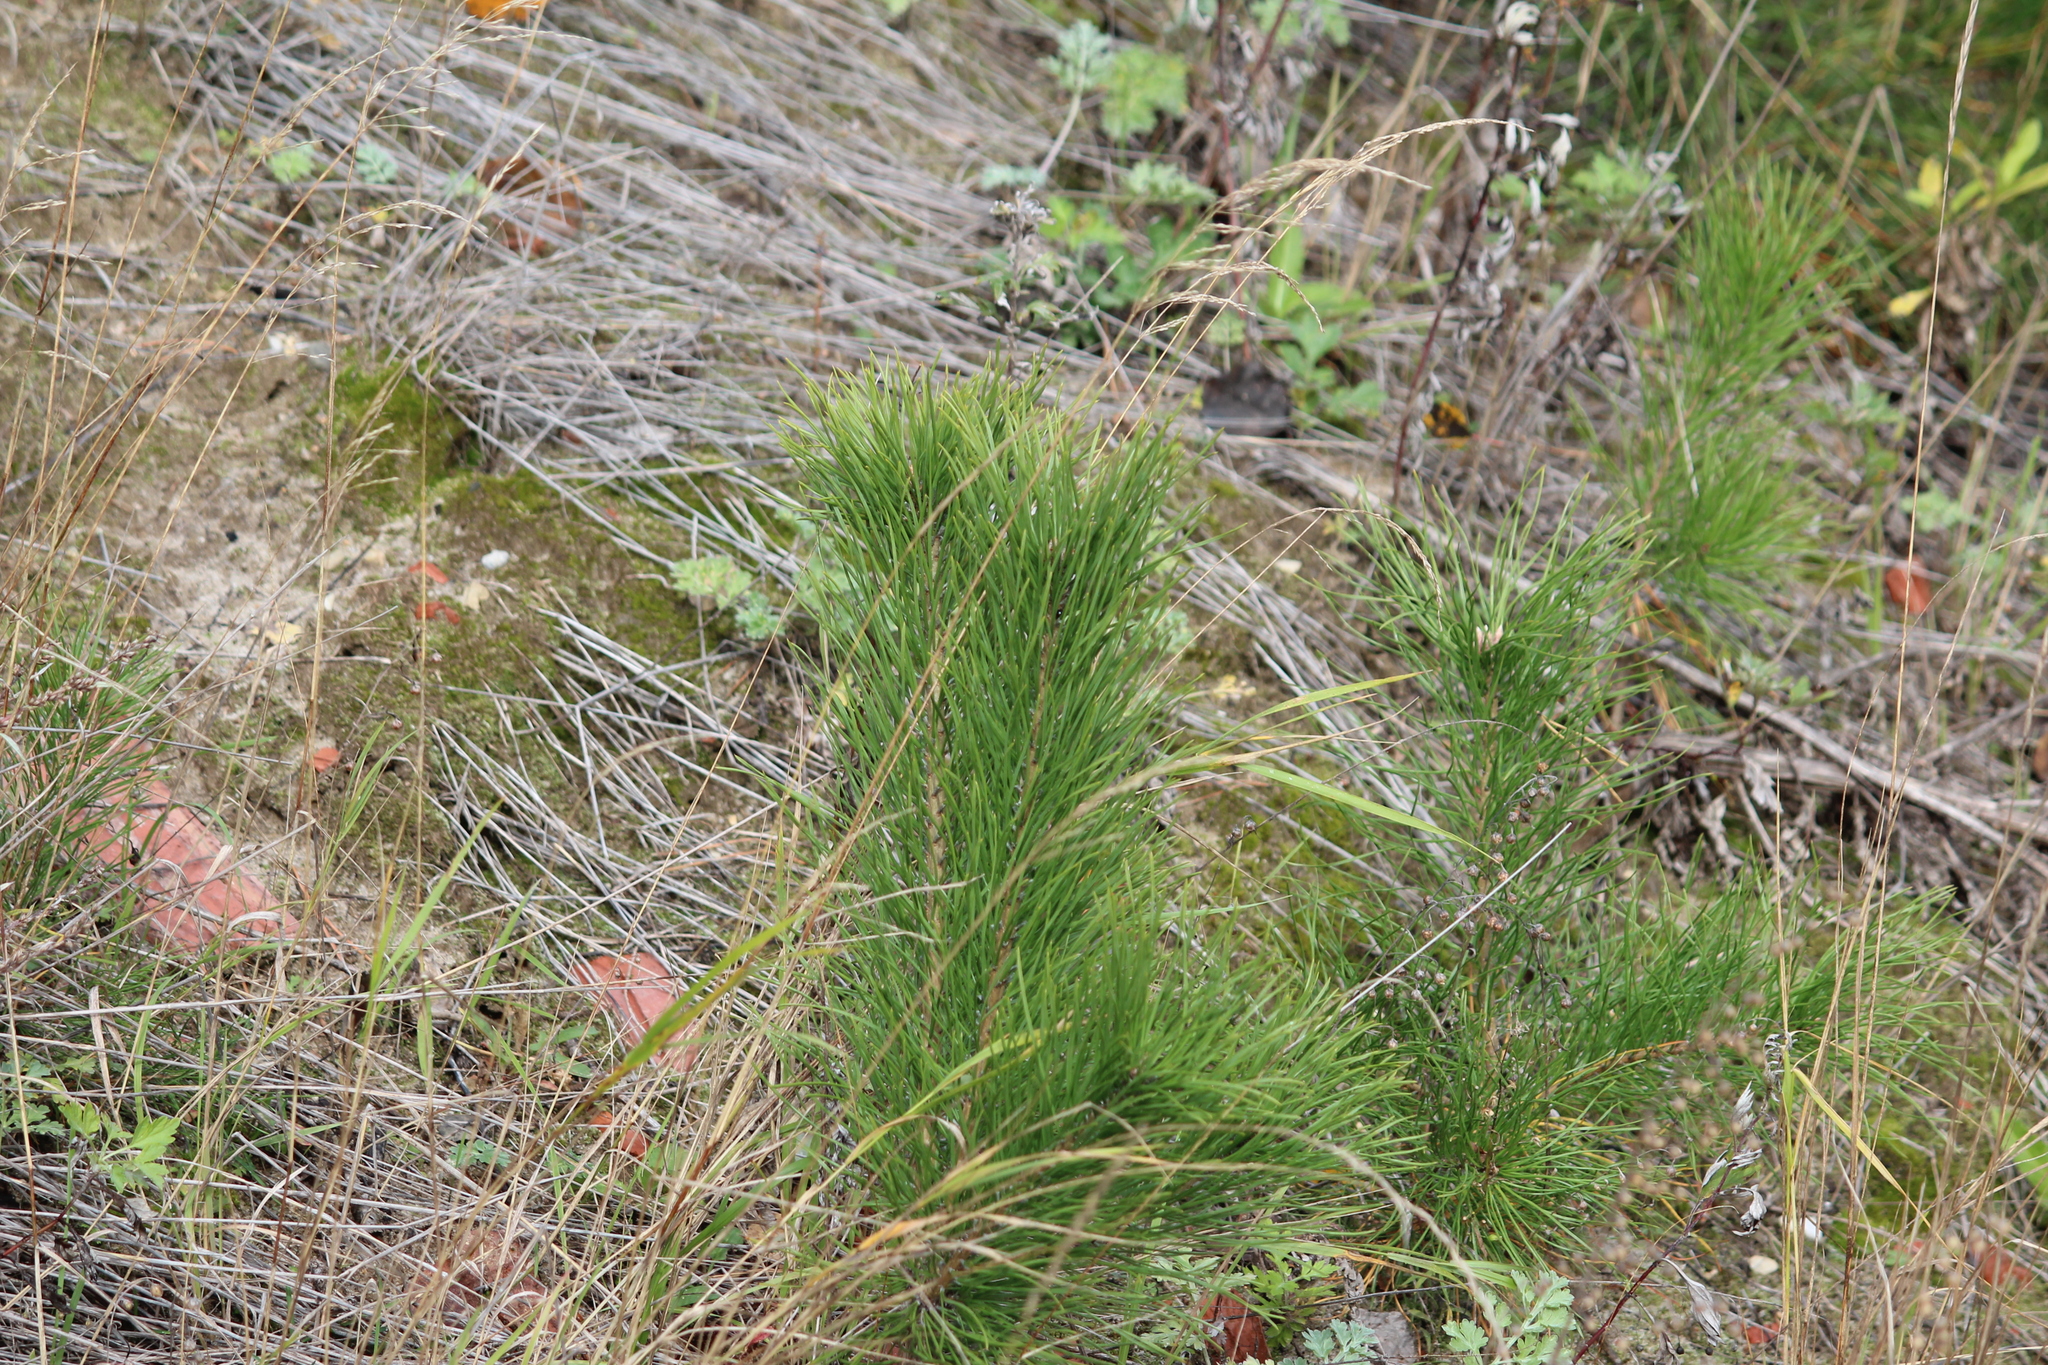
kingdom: Plantae
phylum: Tracheophyta
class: Pinopsida
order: Pinales
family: Pinaceae
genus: Pinus
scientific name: Pinus sylvestris
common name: Scots pine
